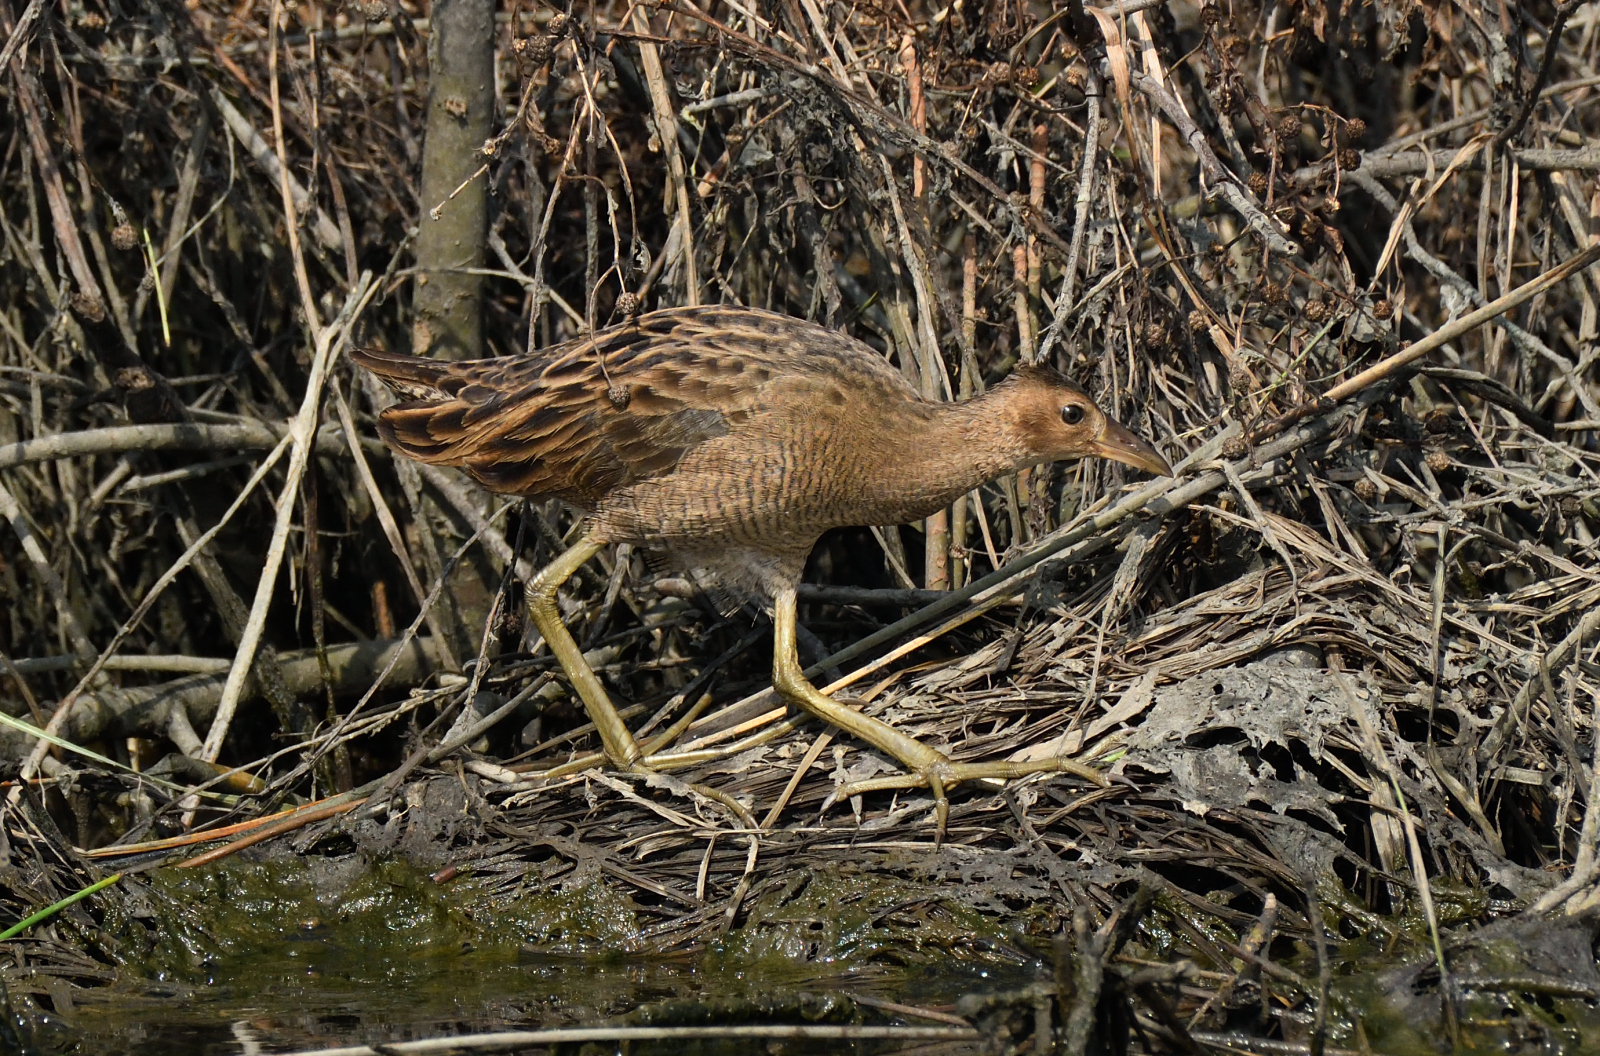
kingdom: Animalia
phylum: Chordata
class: Aves
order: Gruiformes
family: Rallidae
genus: Gallicrex
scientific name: Gallicrex cinerea
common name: Watercock
